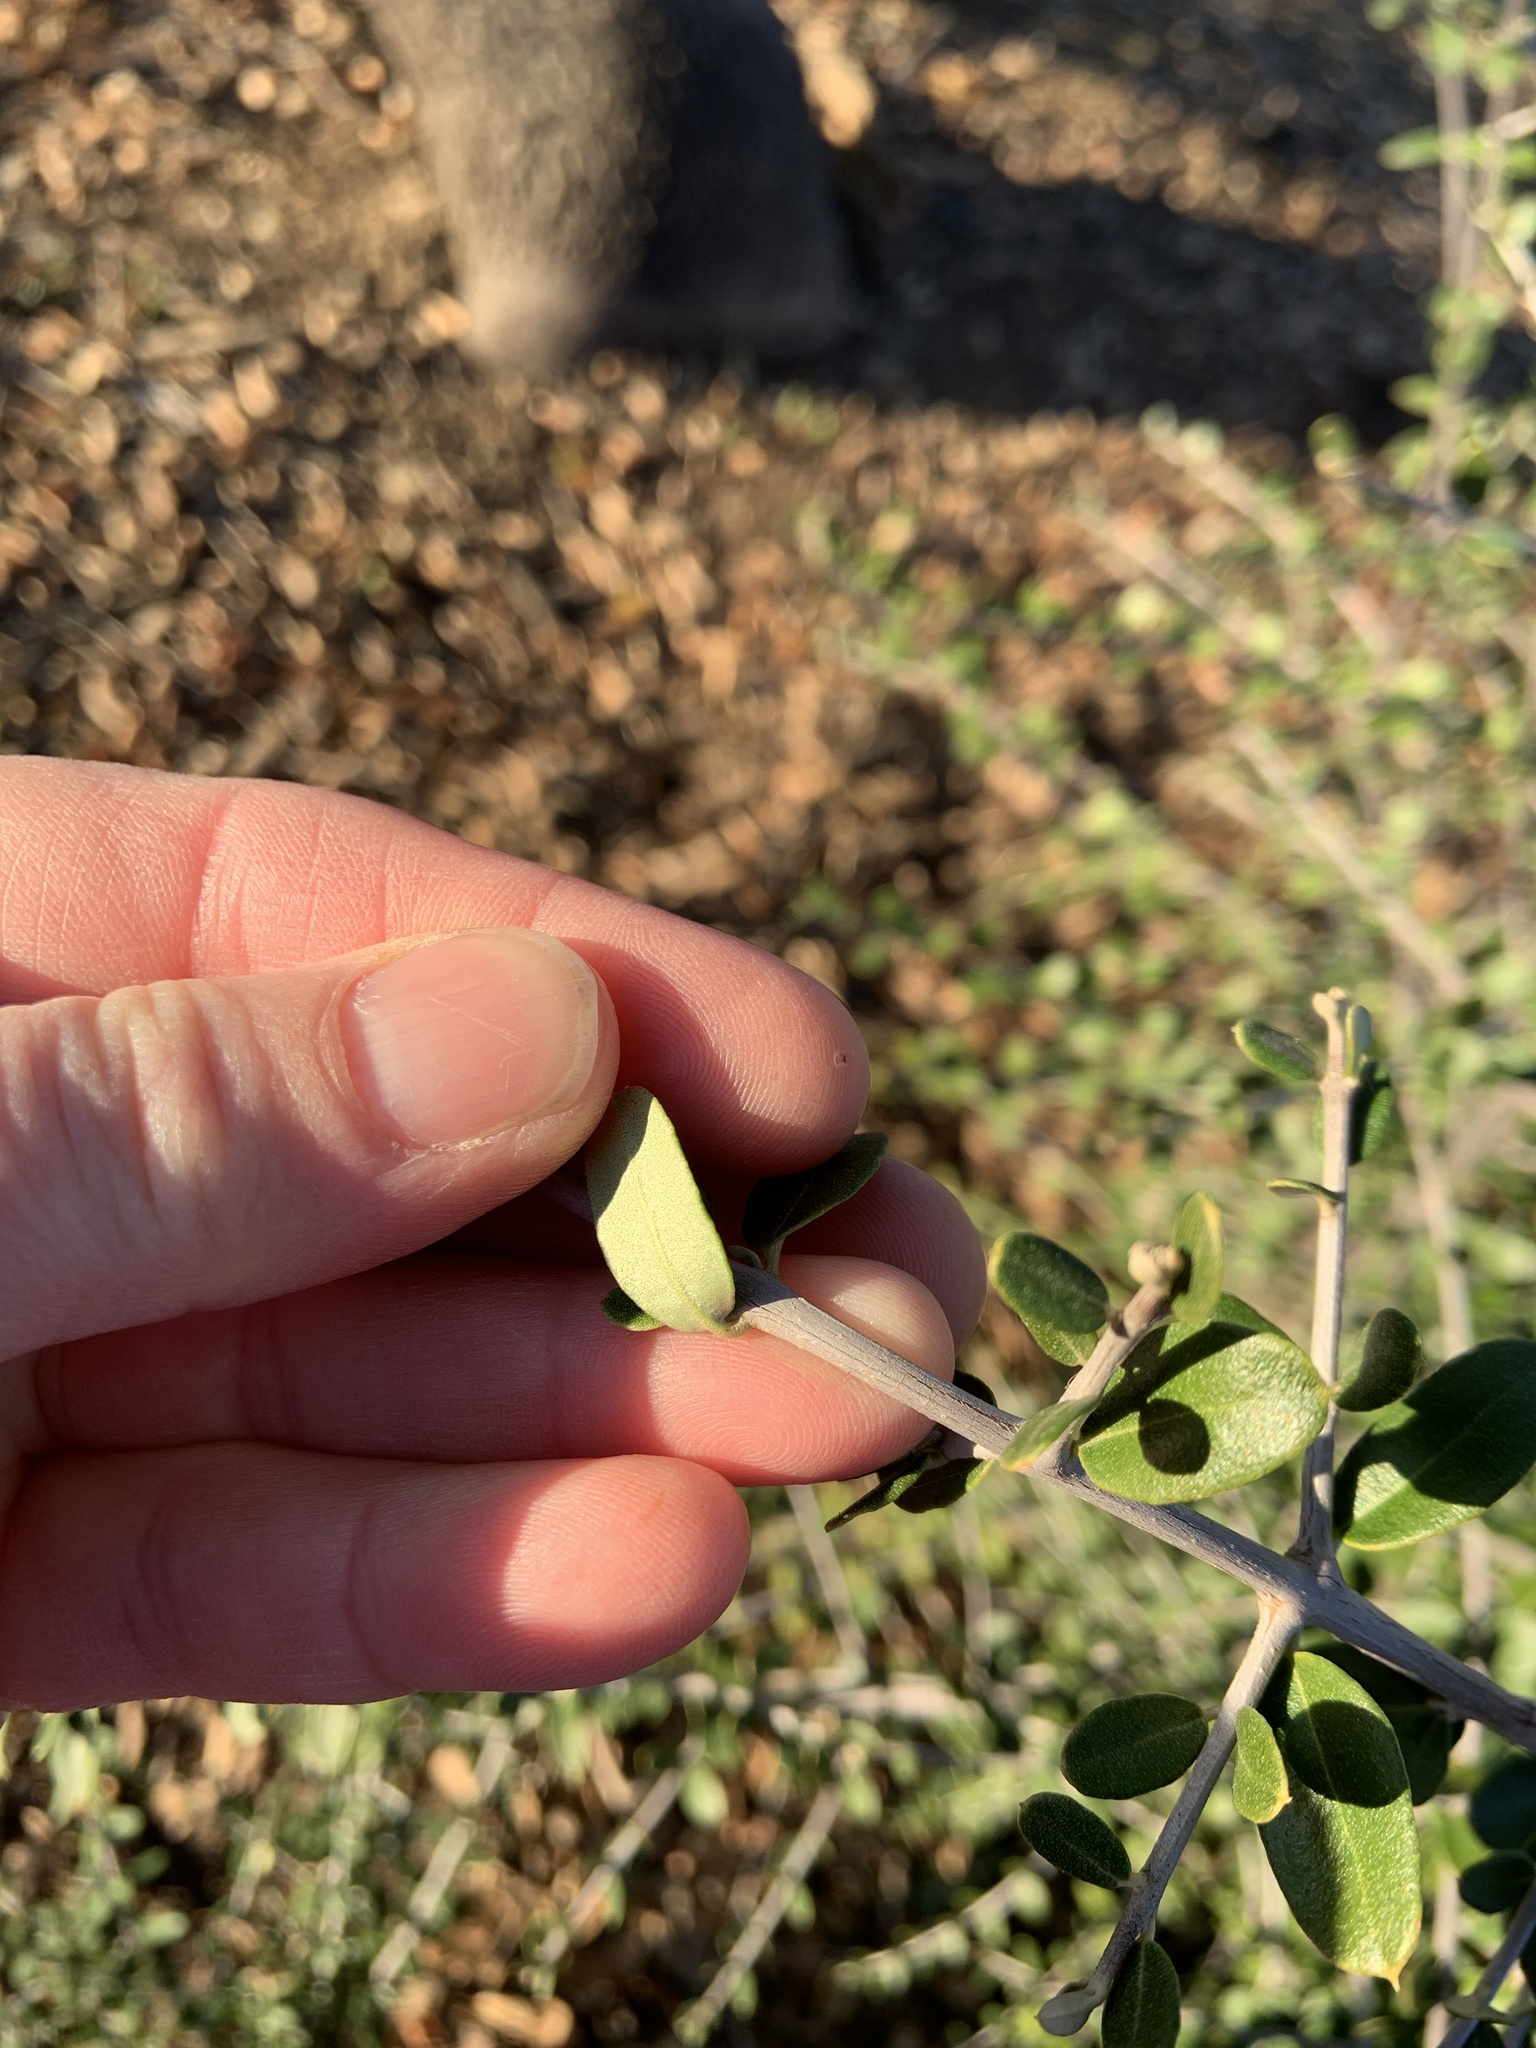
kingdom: Plantae
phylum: Tracheophyta
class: Magnoliopsida
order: Lamiales
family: Oleaceae
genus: Olea
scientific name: Olea europaea
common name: Olive
